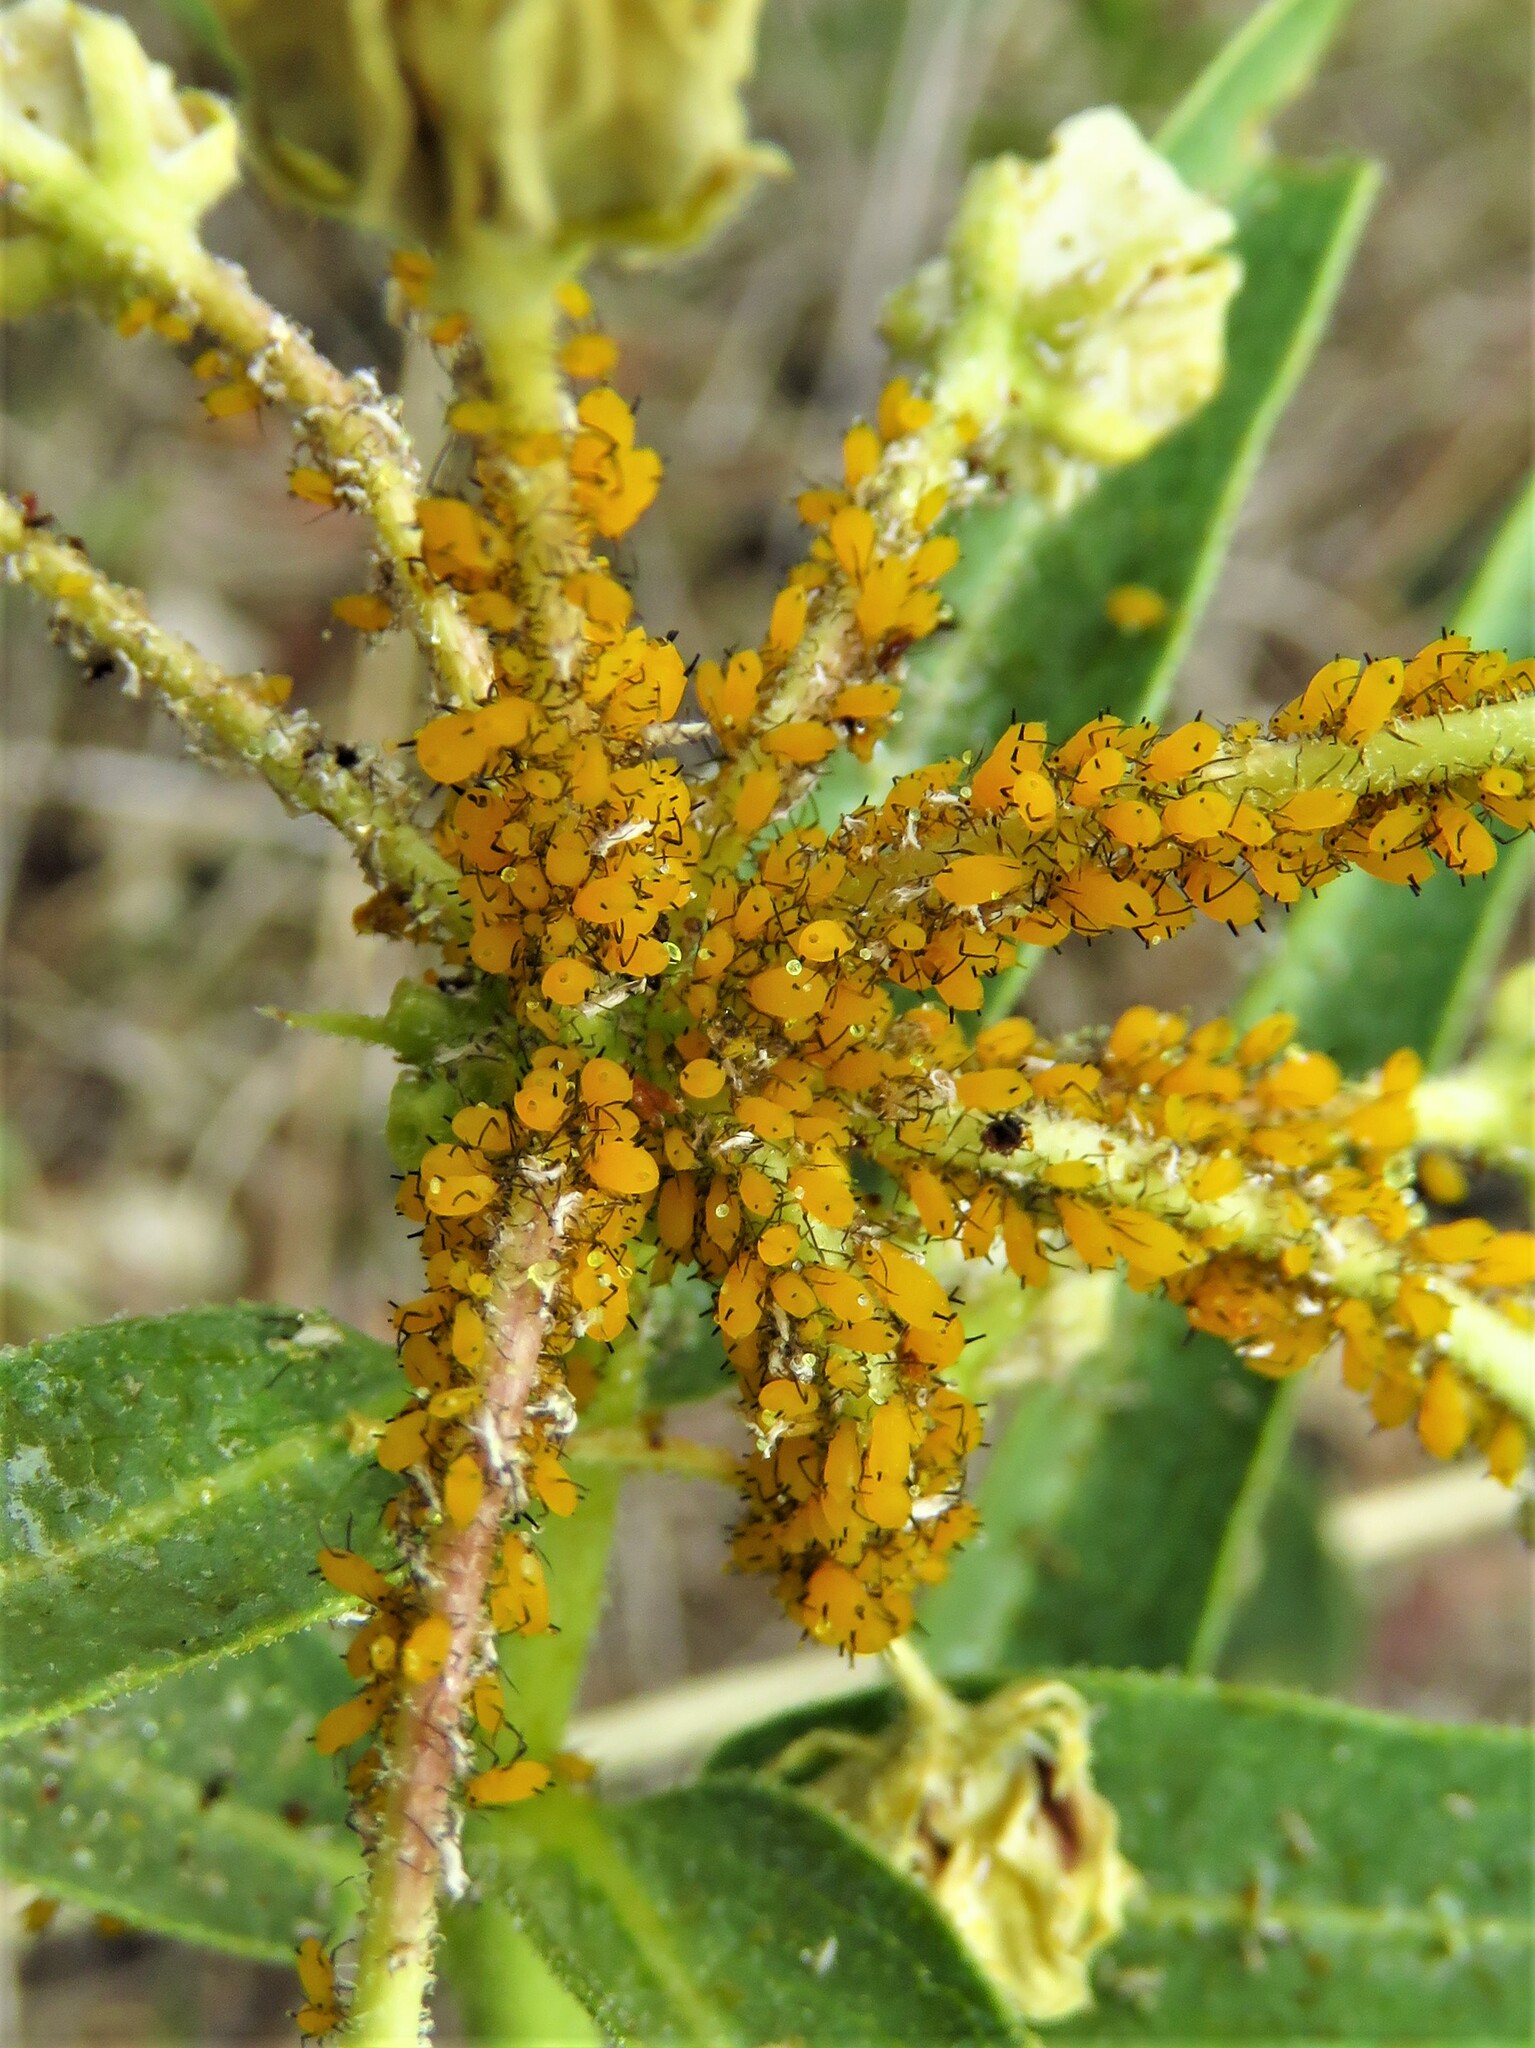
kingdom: Animalia
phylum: Arthropoda
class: Insecta
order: Hemiptera
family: Aphididae
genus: Aphis
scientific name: Aphis nerii
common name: Oleander aphid
